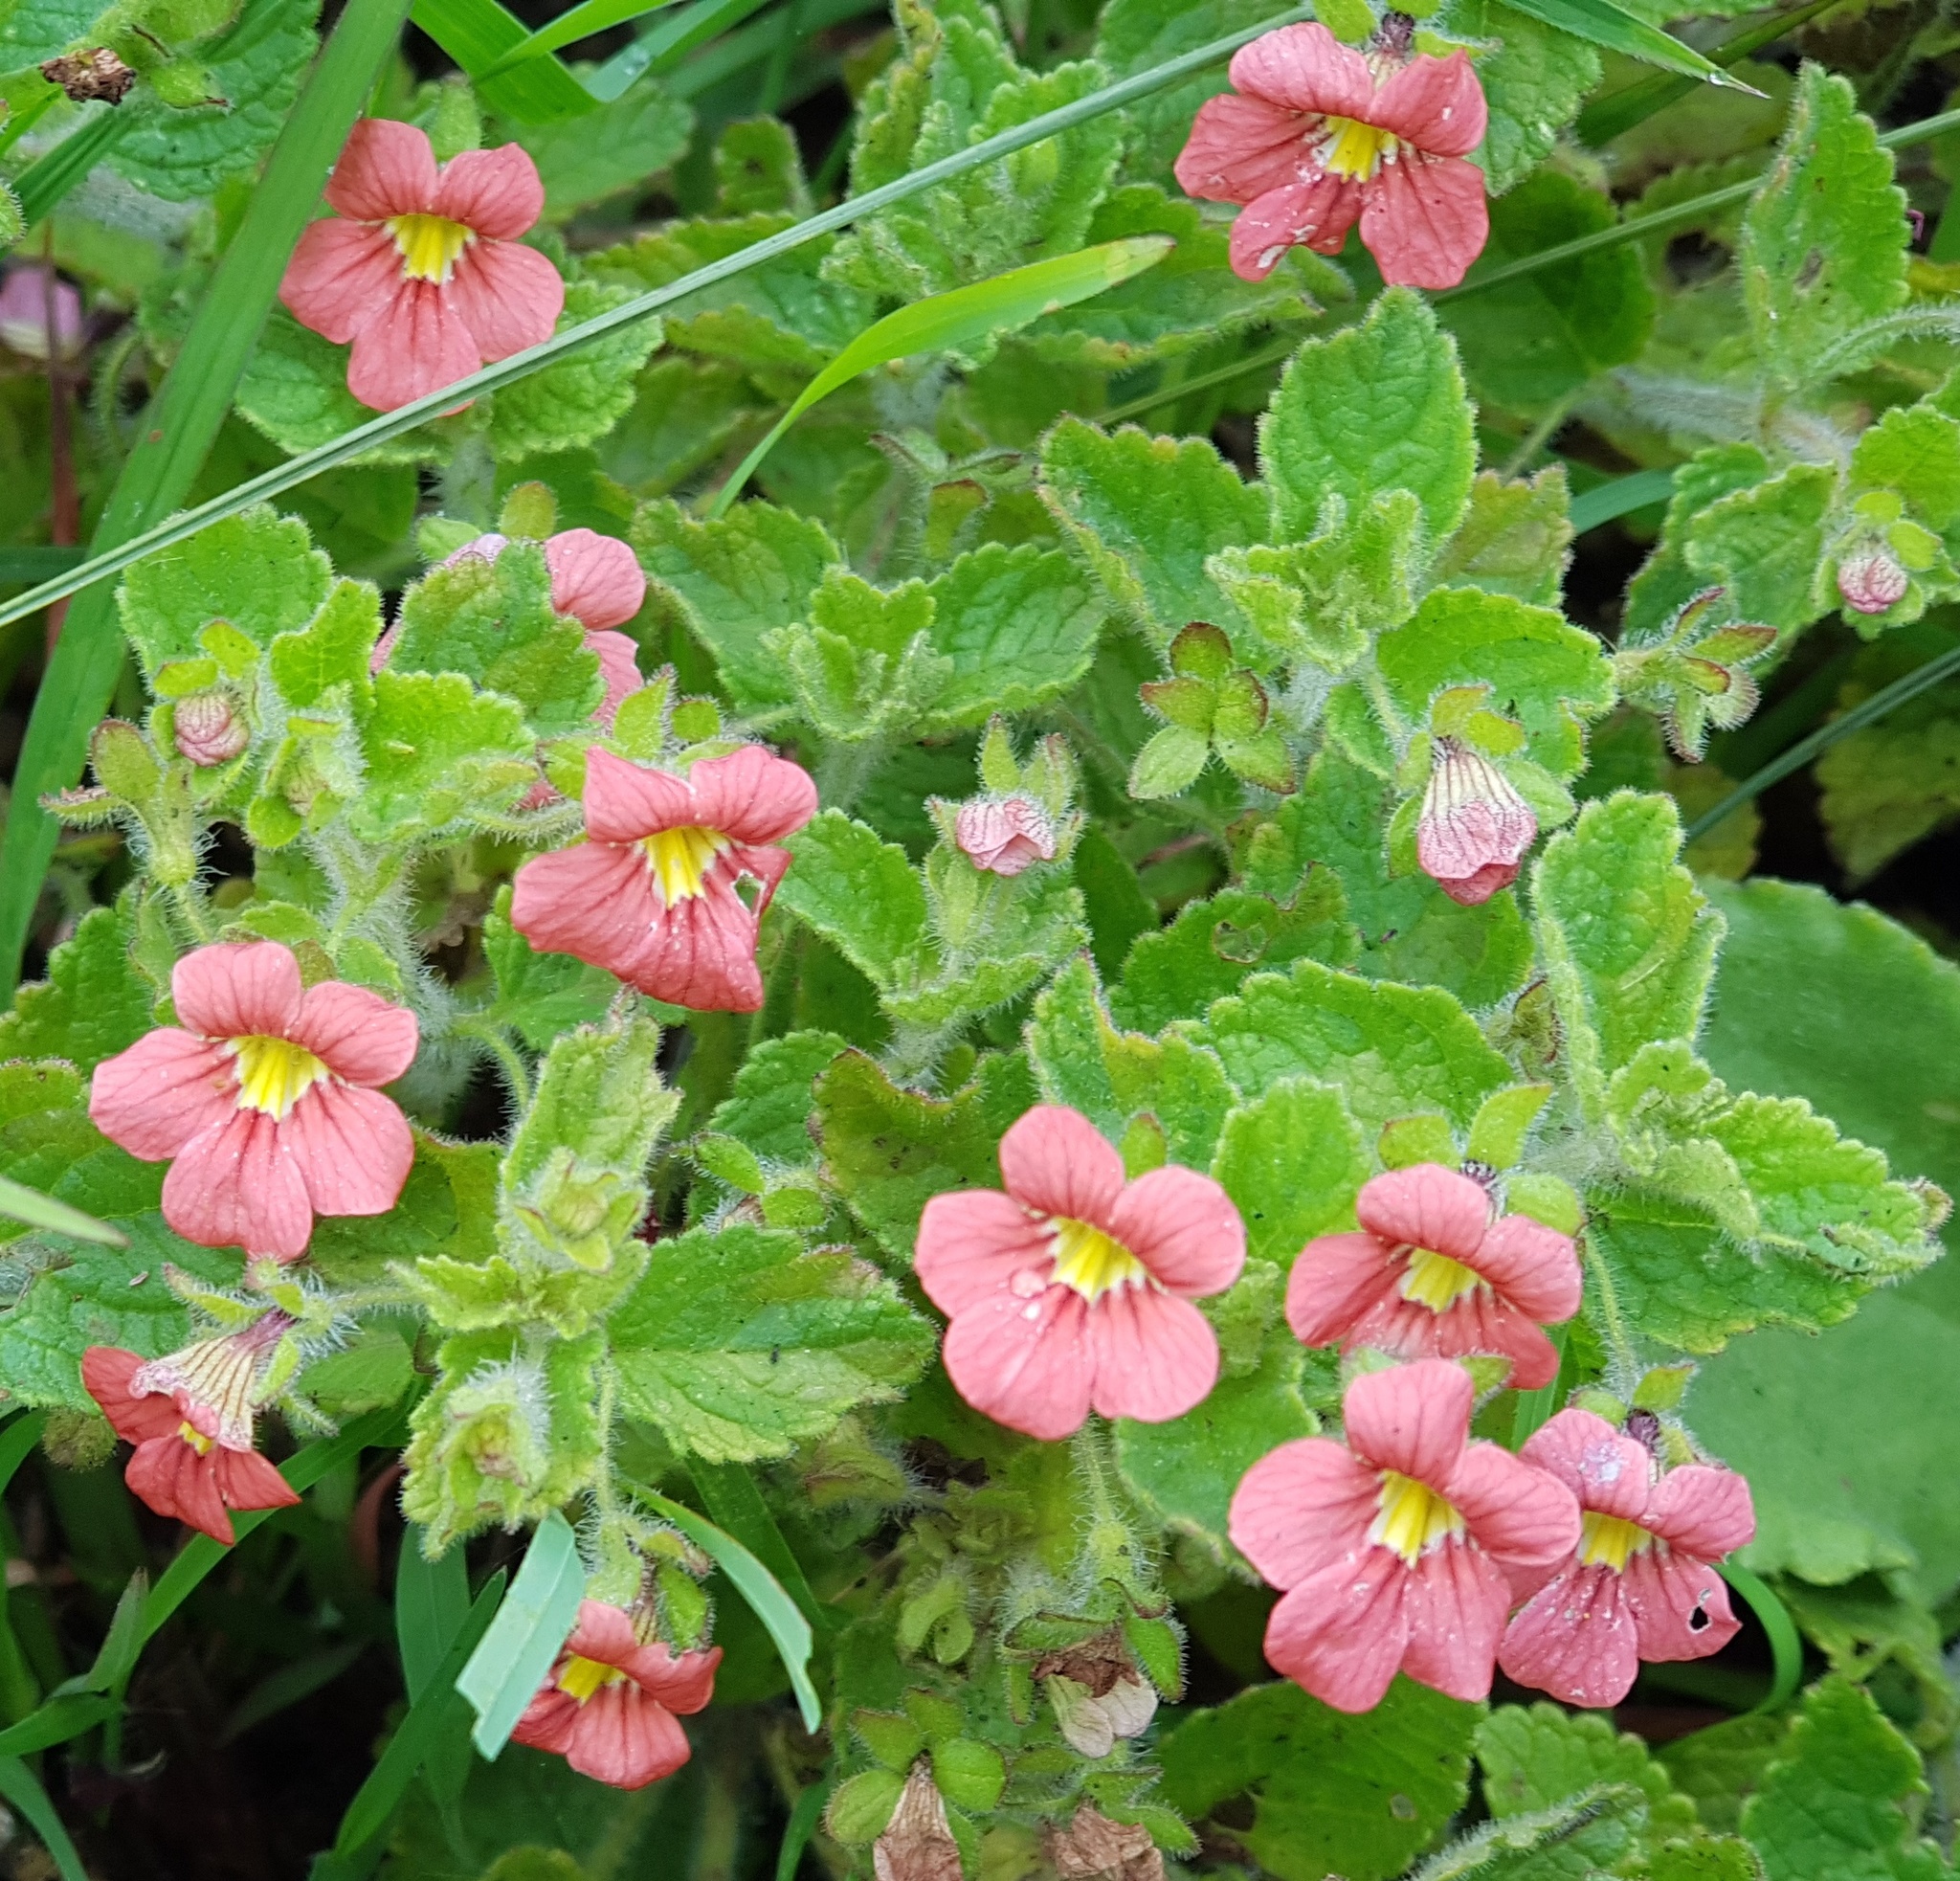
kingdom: Plantae
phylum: Tracheophyta
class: Magnoliopsida
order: Lamiales
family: Scrophulariaceae
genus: Jamesbrittenia
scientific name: Jamesbrittenia breviflora
